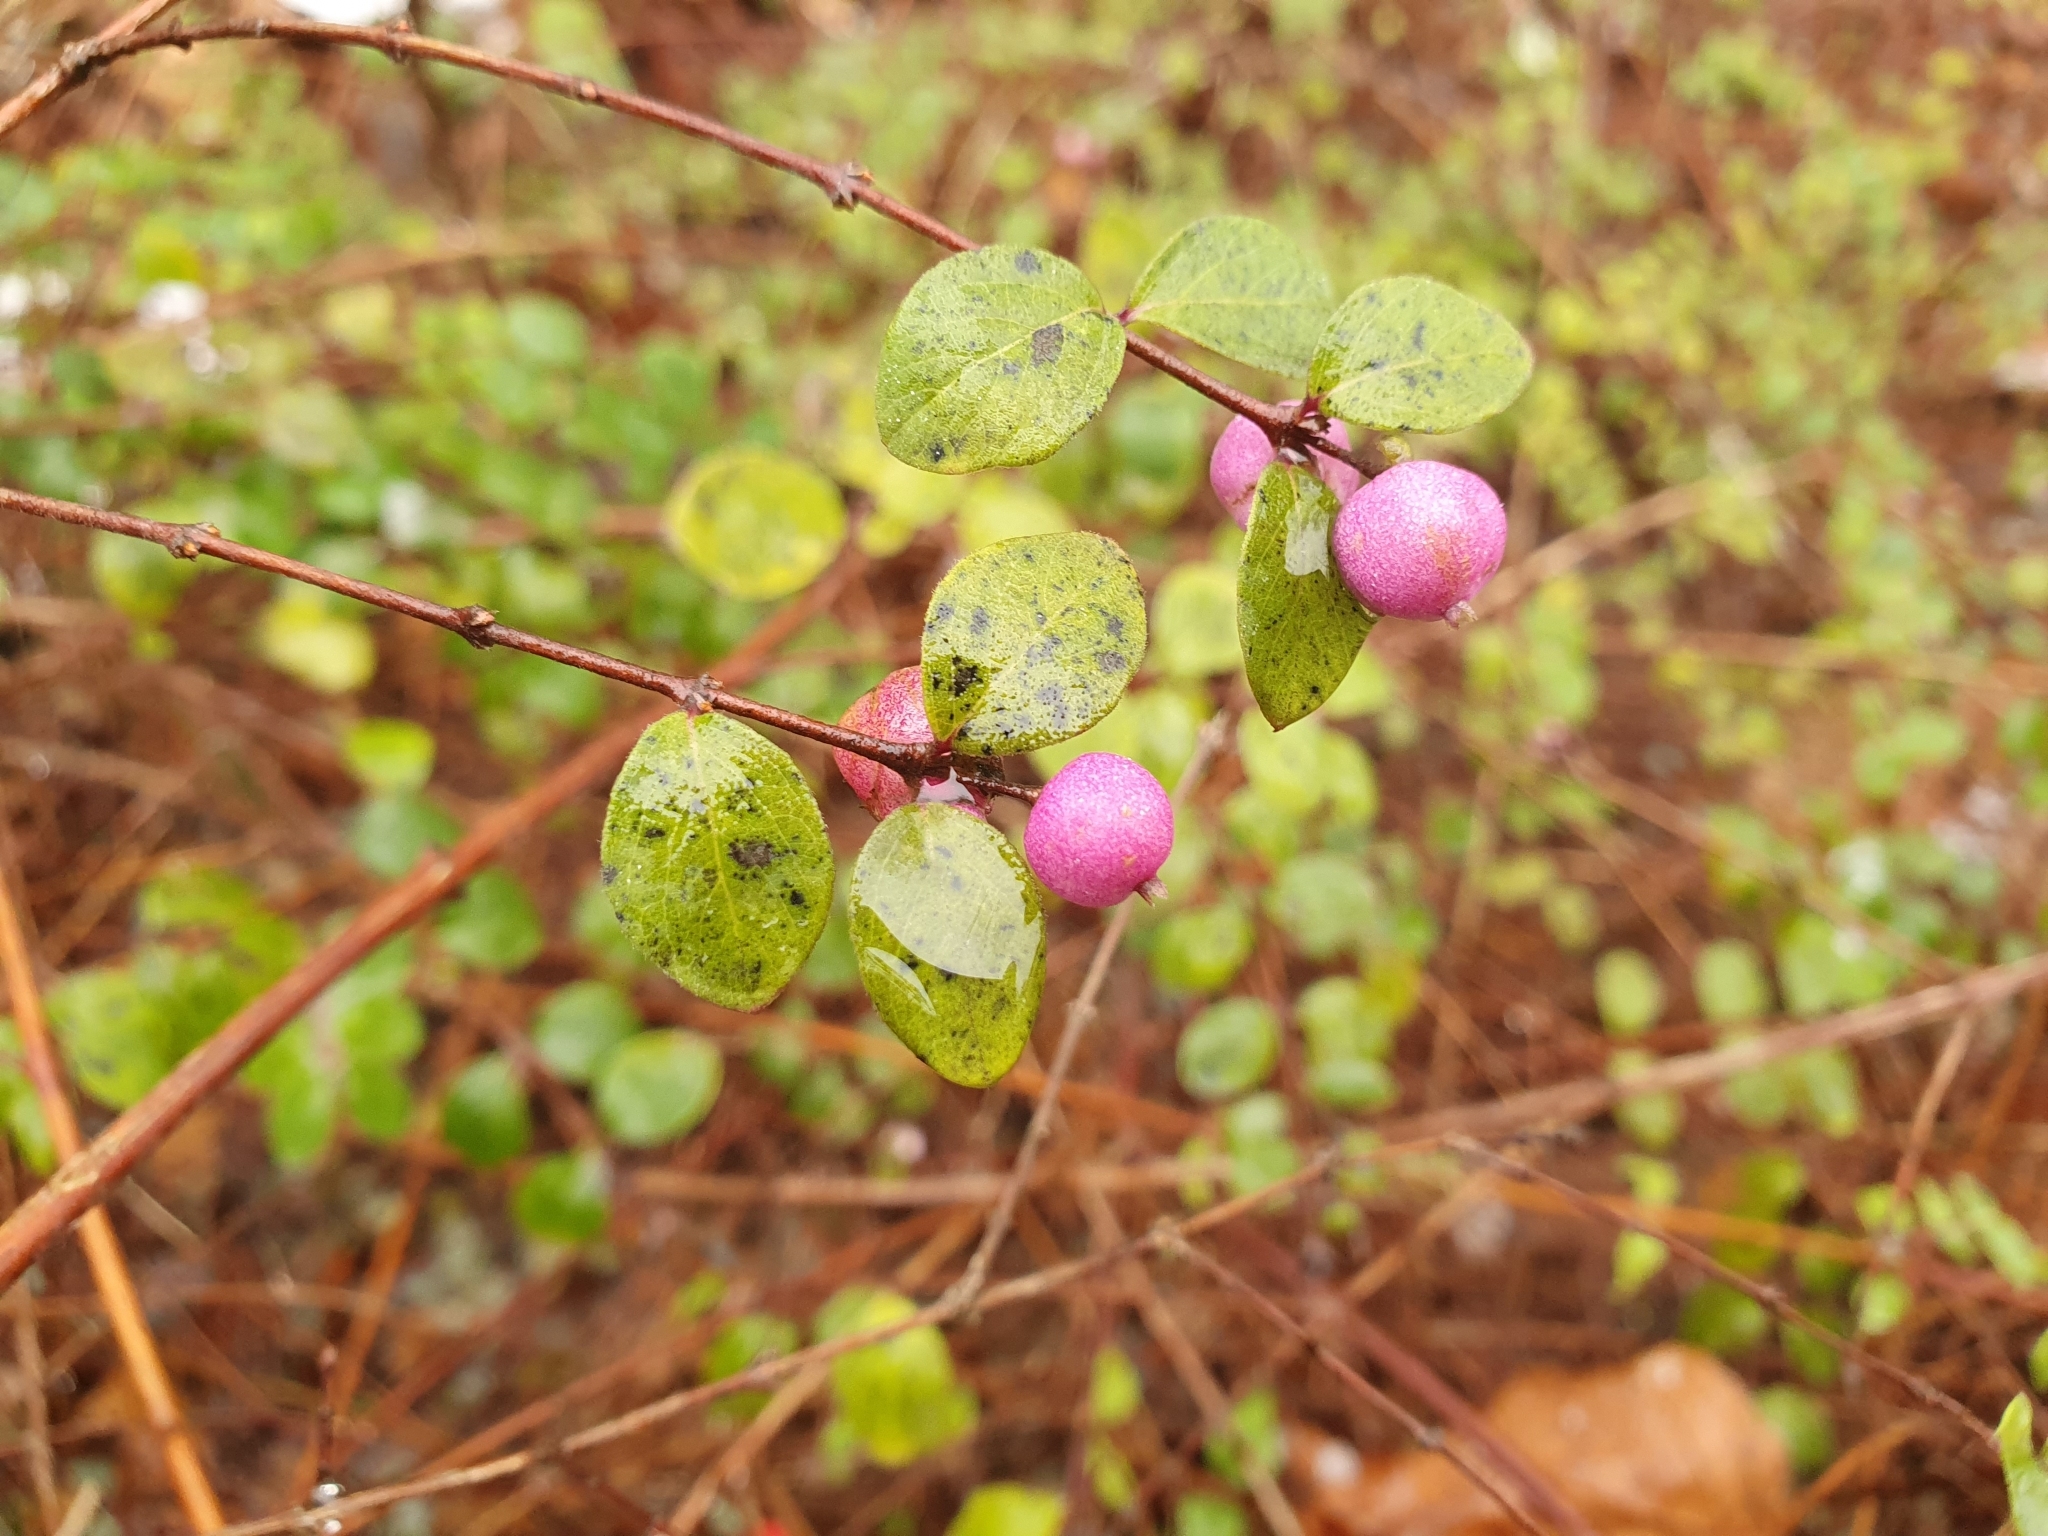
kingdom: Plantae
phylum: Tracheophyta
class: Magnoliopsida
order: Dipsacales
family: Caprifoliaceae
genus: Symphoricarpos
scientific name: Symphoricarpos chenaultii
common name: Hybrid coralberry
